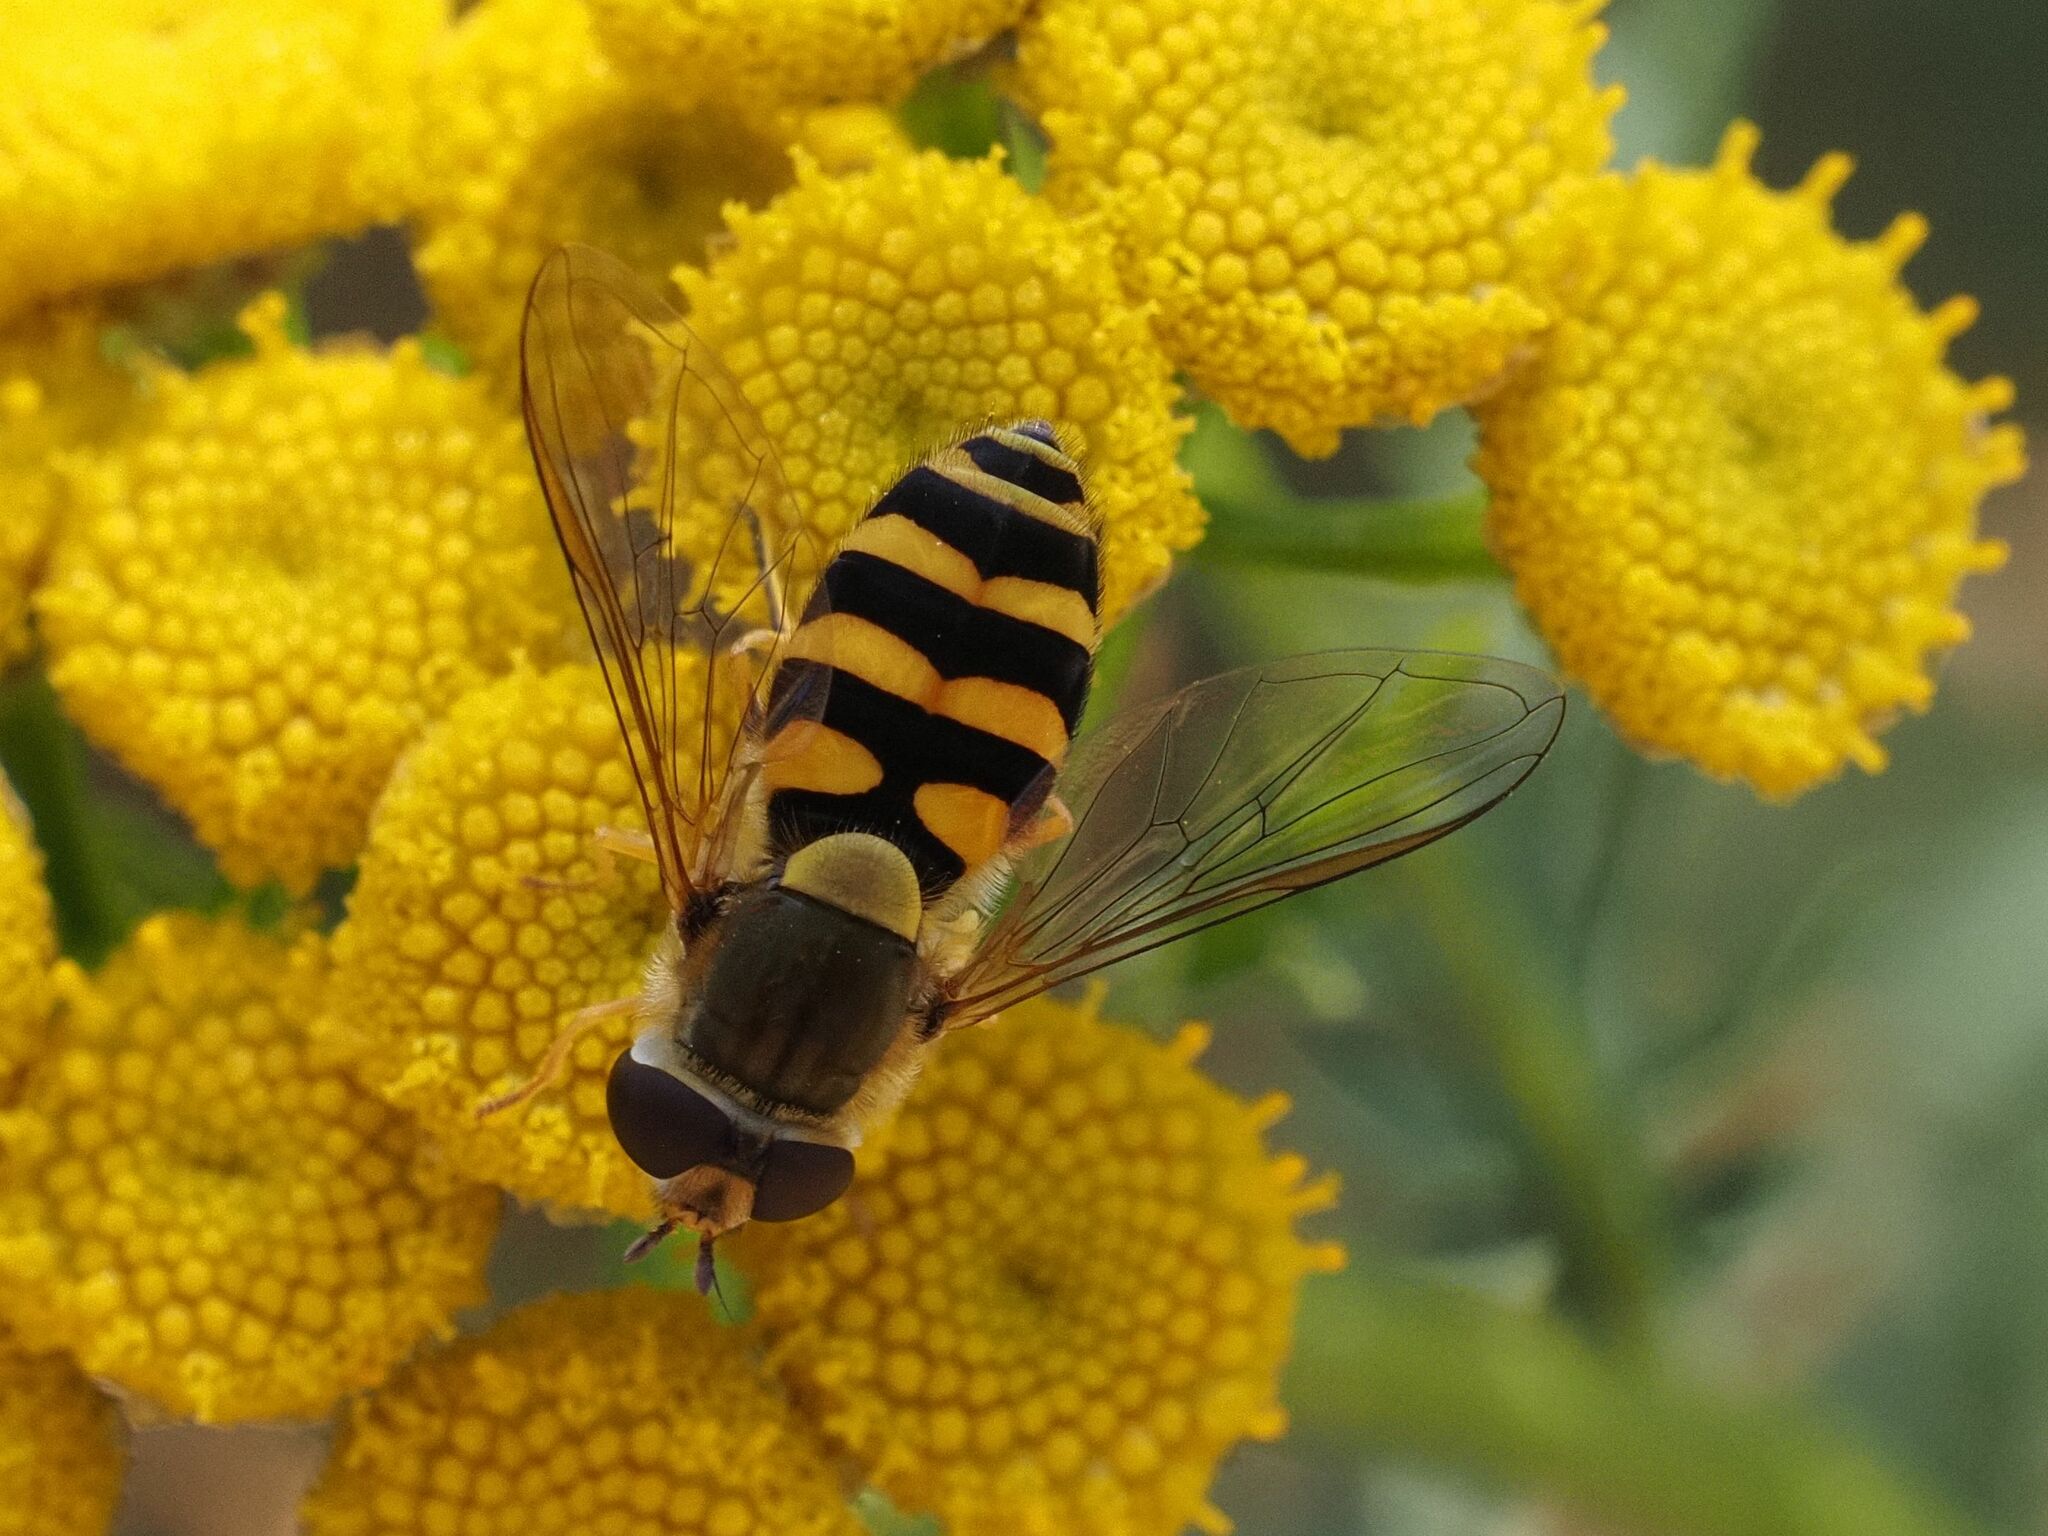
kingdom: Animalia
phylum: Arthropoda
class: Insecta
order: Diptera
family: Syrphidae
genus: Syrphus
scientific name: Syrphus
